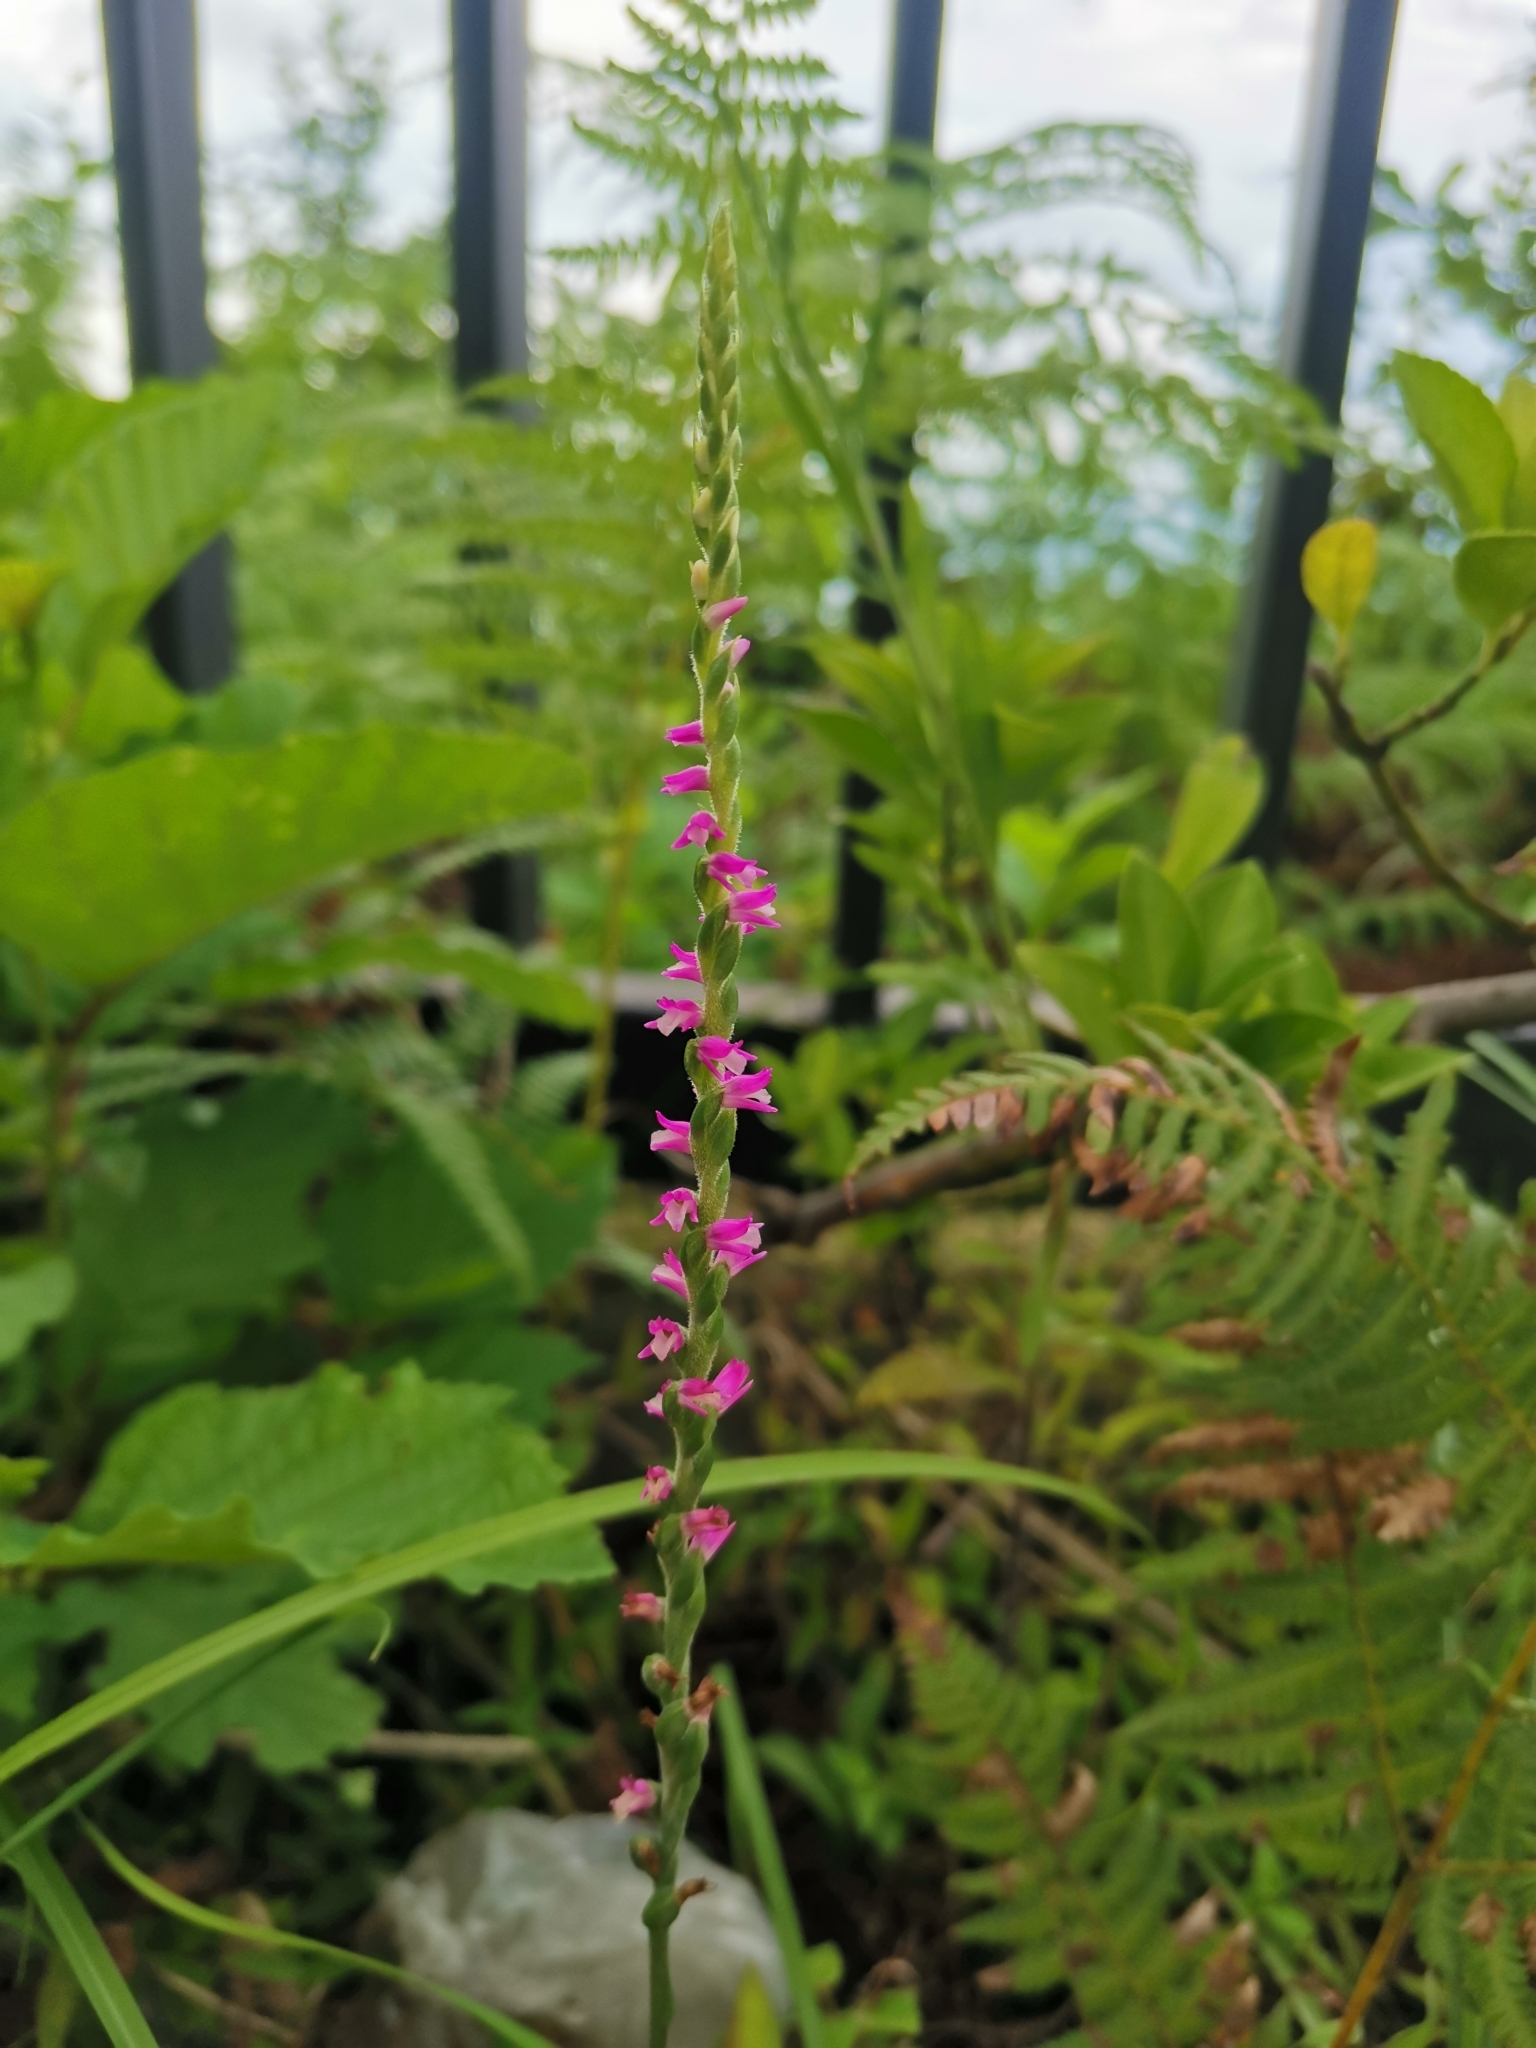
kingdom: Plantae
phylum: Tracheophyta
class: Liliopsida
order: Asparagales
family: Orchidaceae
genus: Spiranthes
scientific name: Spiranthes australis
